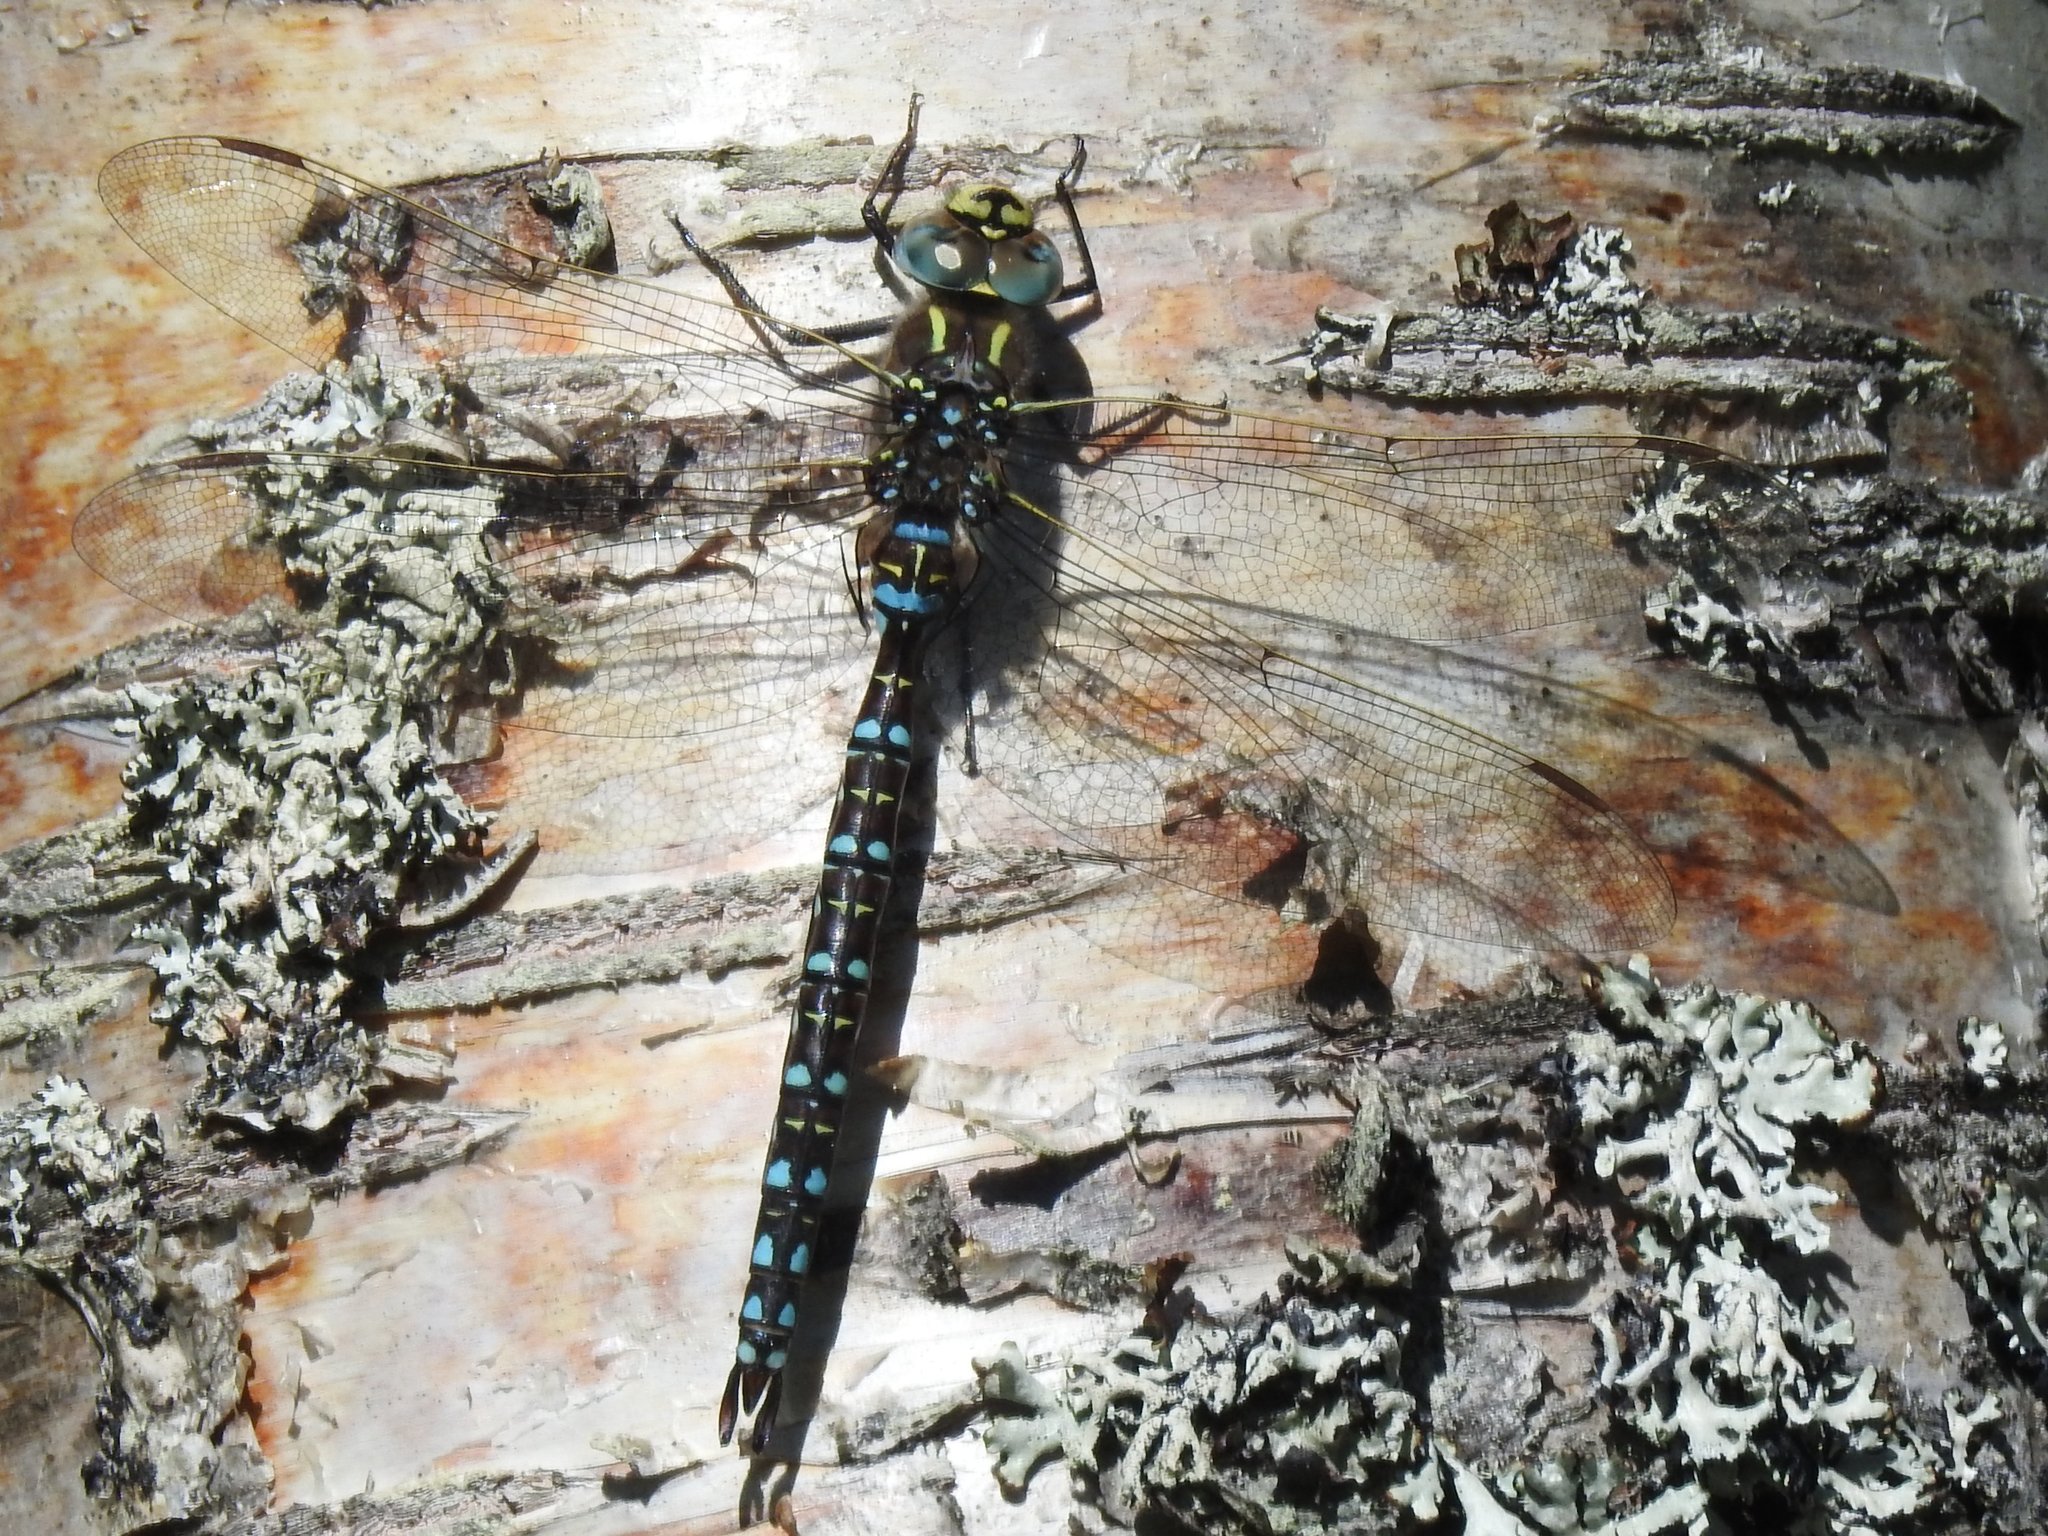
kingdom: Animalia
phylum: Arthropoda
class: Insecta
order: Odonata
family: Aeshnidae
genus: Aeshna
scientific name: Aeshna juncea
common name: Moorland hawker
